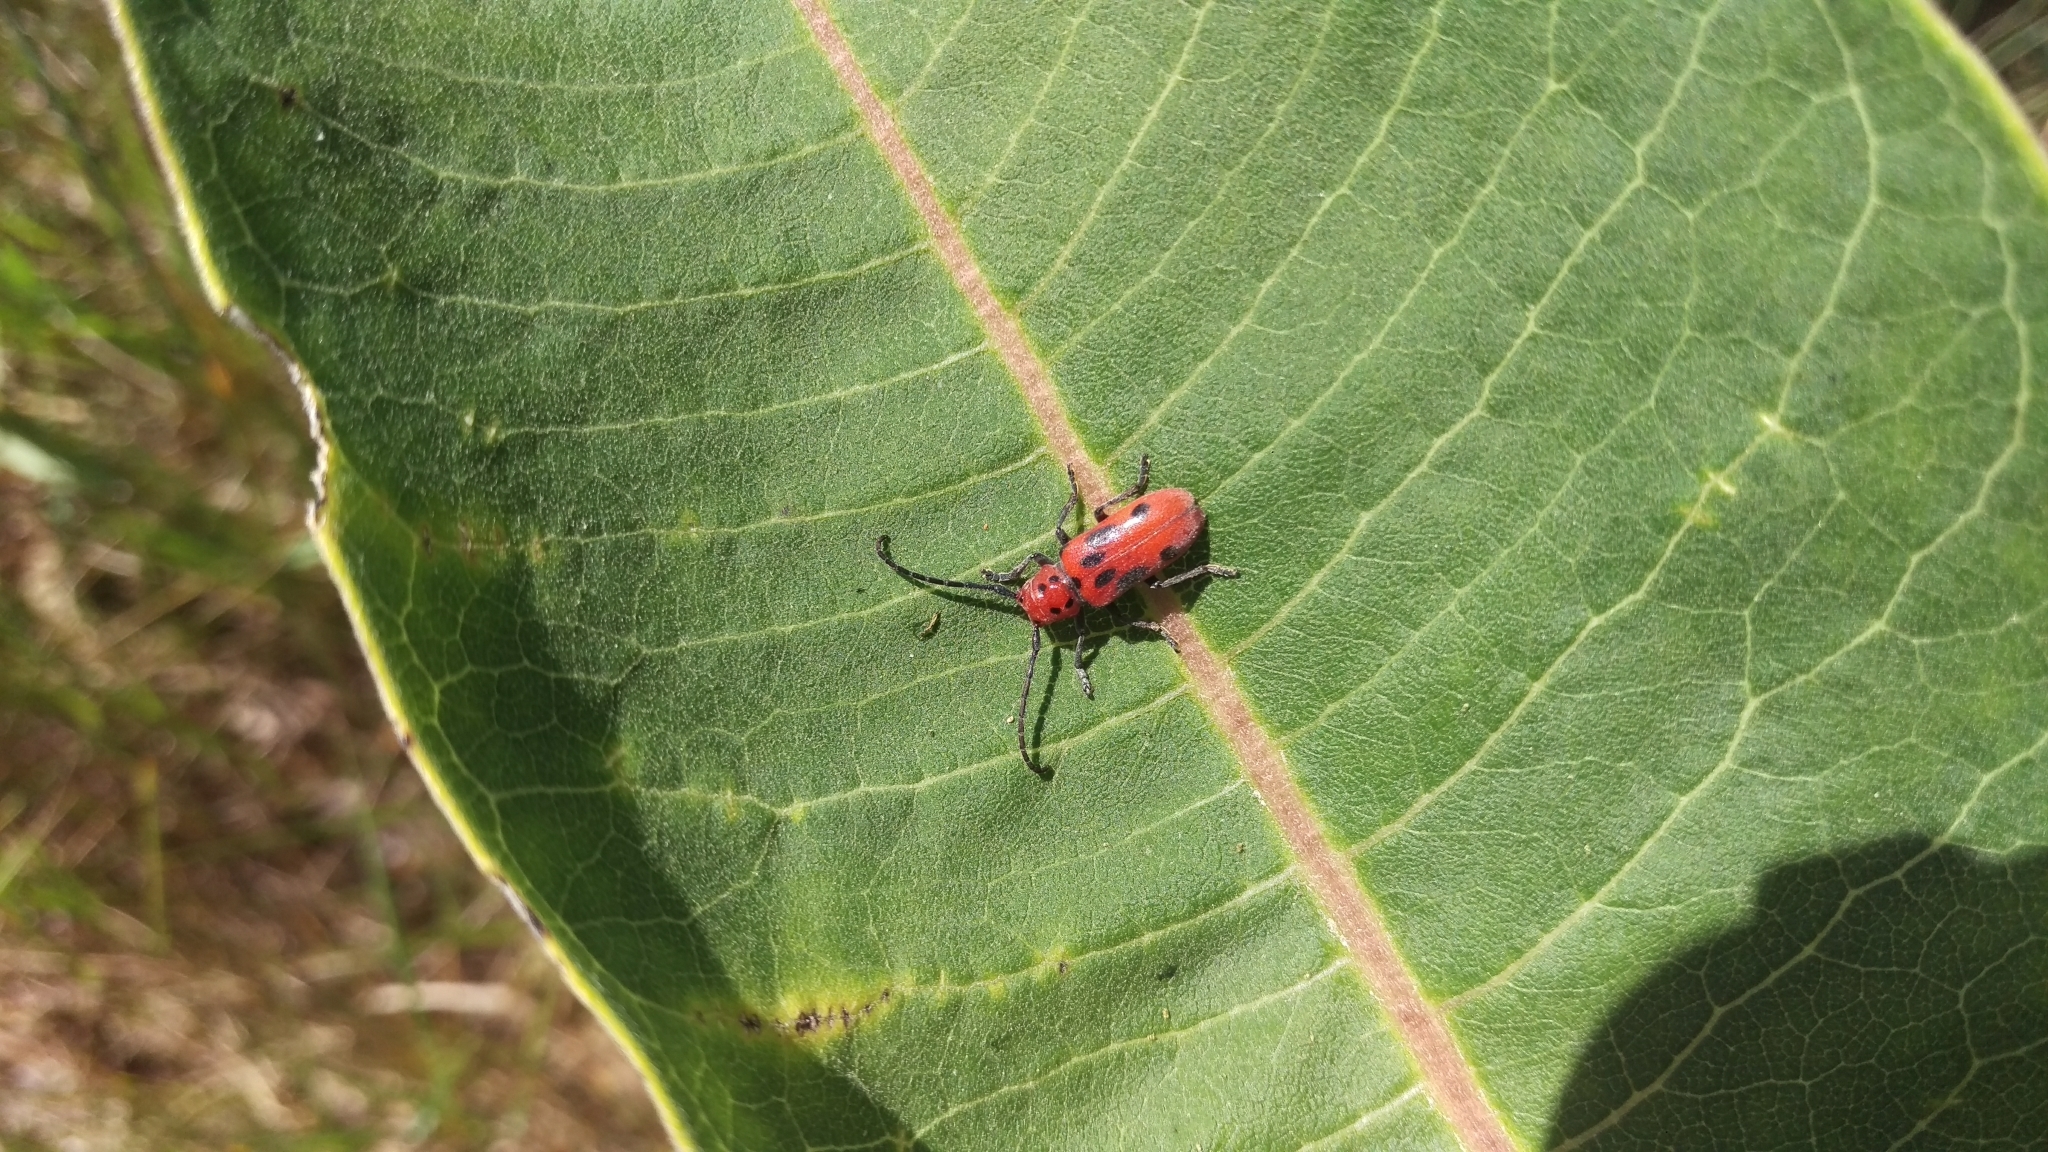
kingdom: Animalia
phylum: Arthropoda
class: Insecta
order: Coleoptera
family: Cerambycidae
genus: Tetraopes
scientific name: Tetraopes tetrophthalmus
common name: Red milkweed beetle
